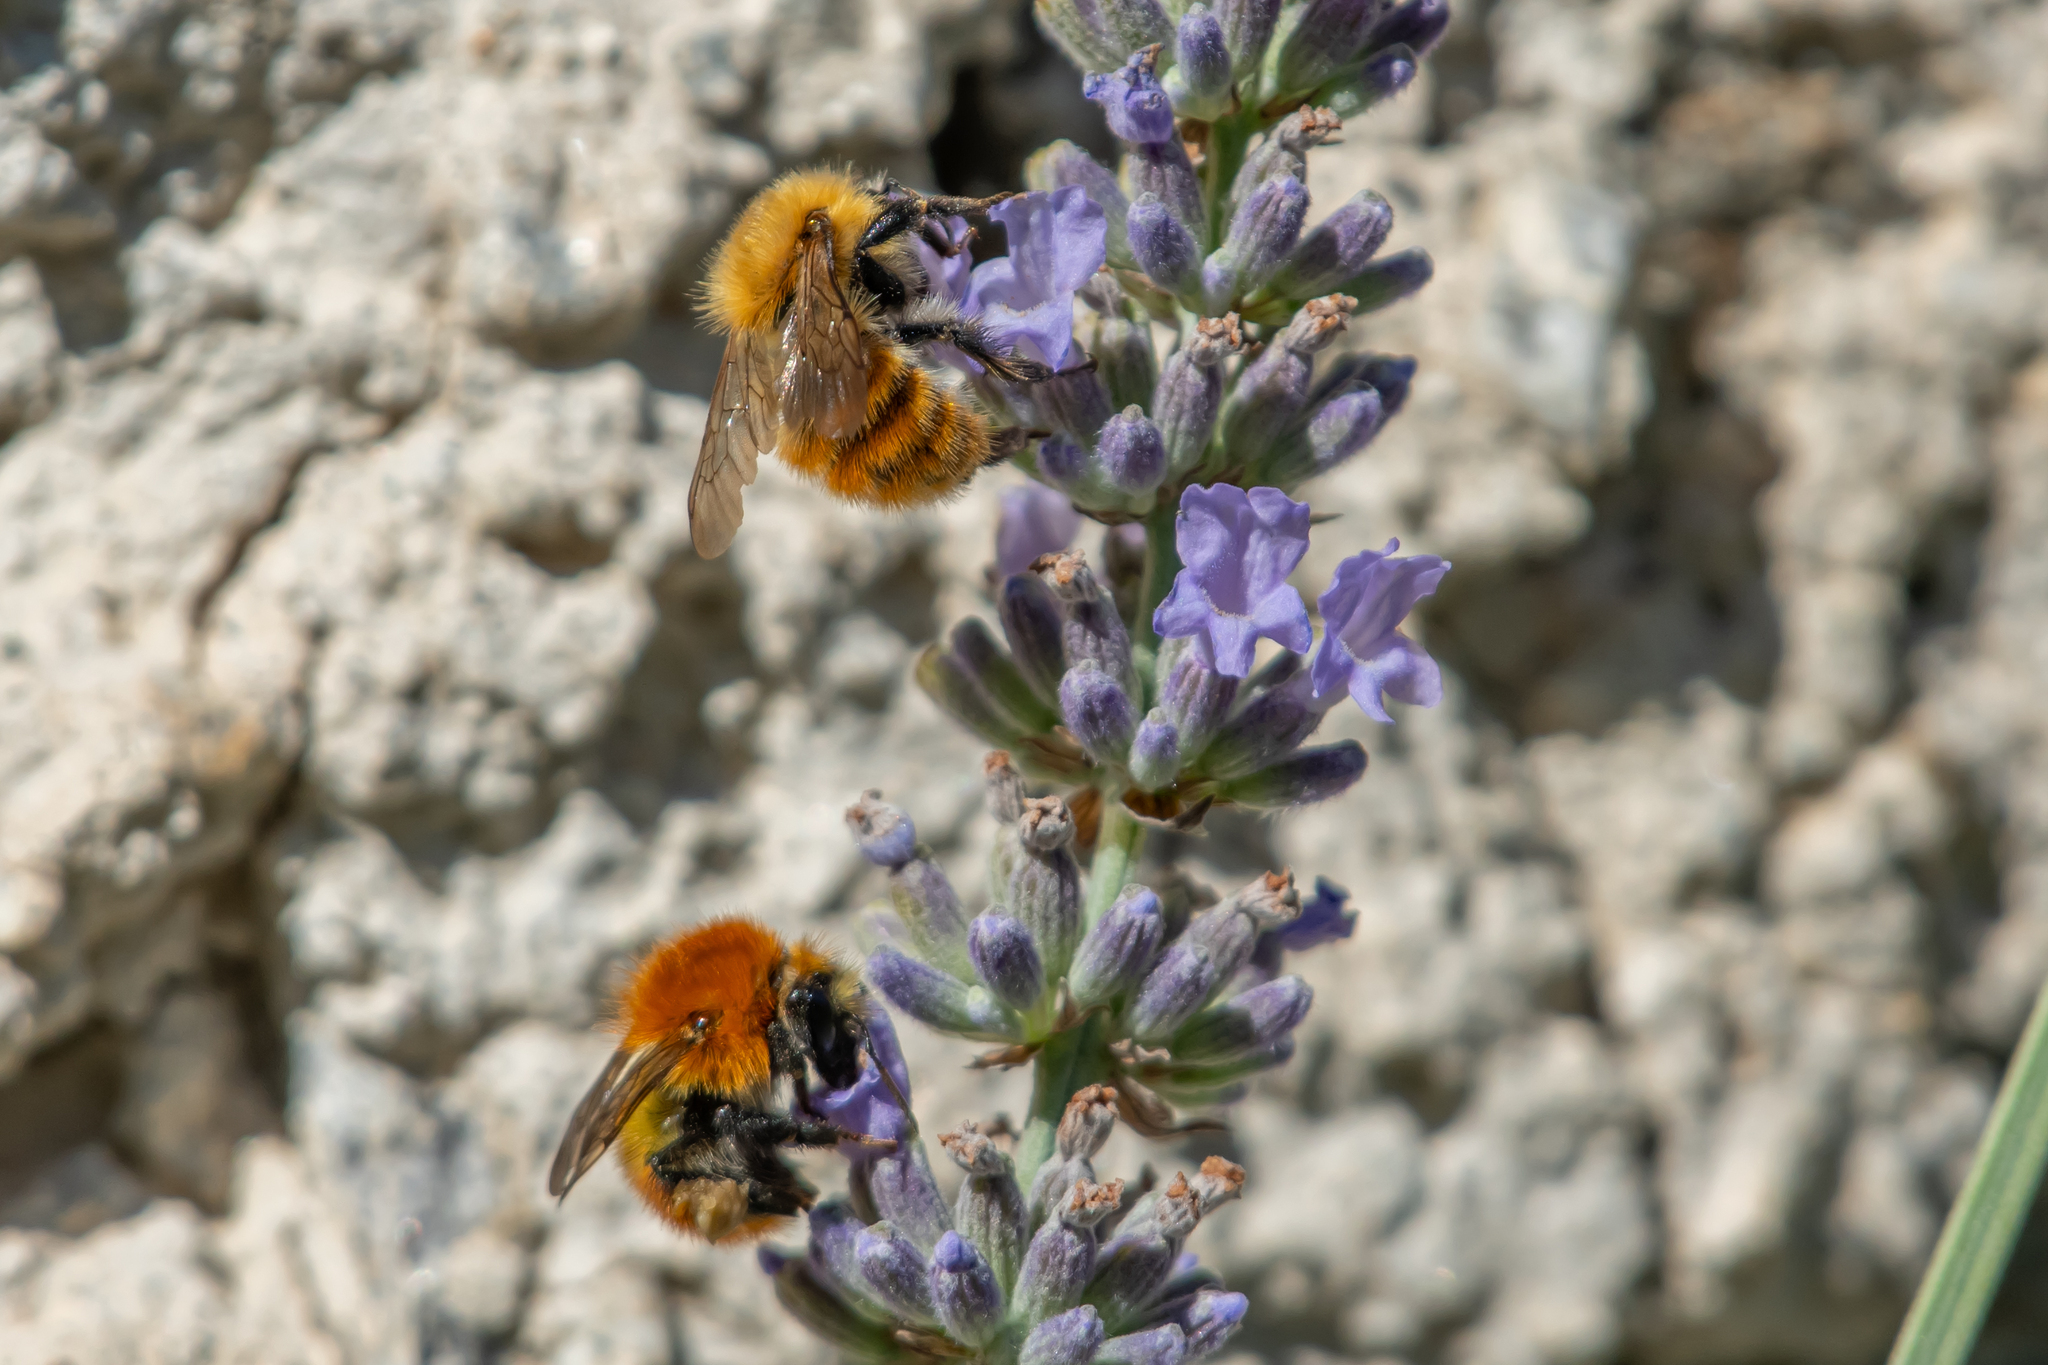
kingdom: Animalia
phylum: Arthropoda
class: Insecta
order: Hymenoptera
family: Apidae
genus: Bombus
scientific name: Bombus pascuorum
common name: Common carder bee
